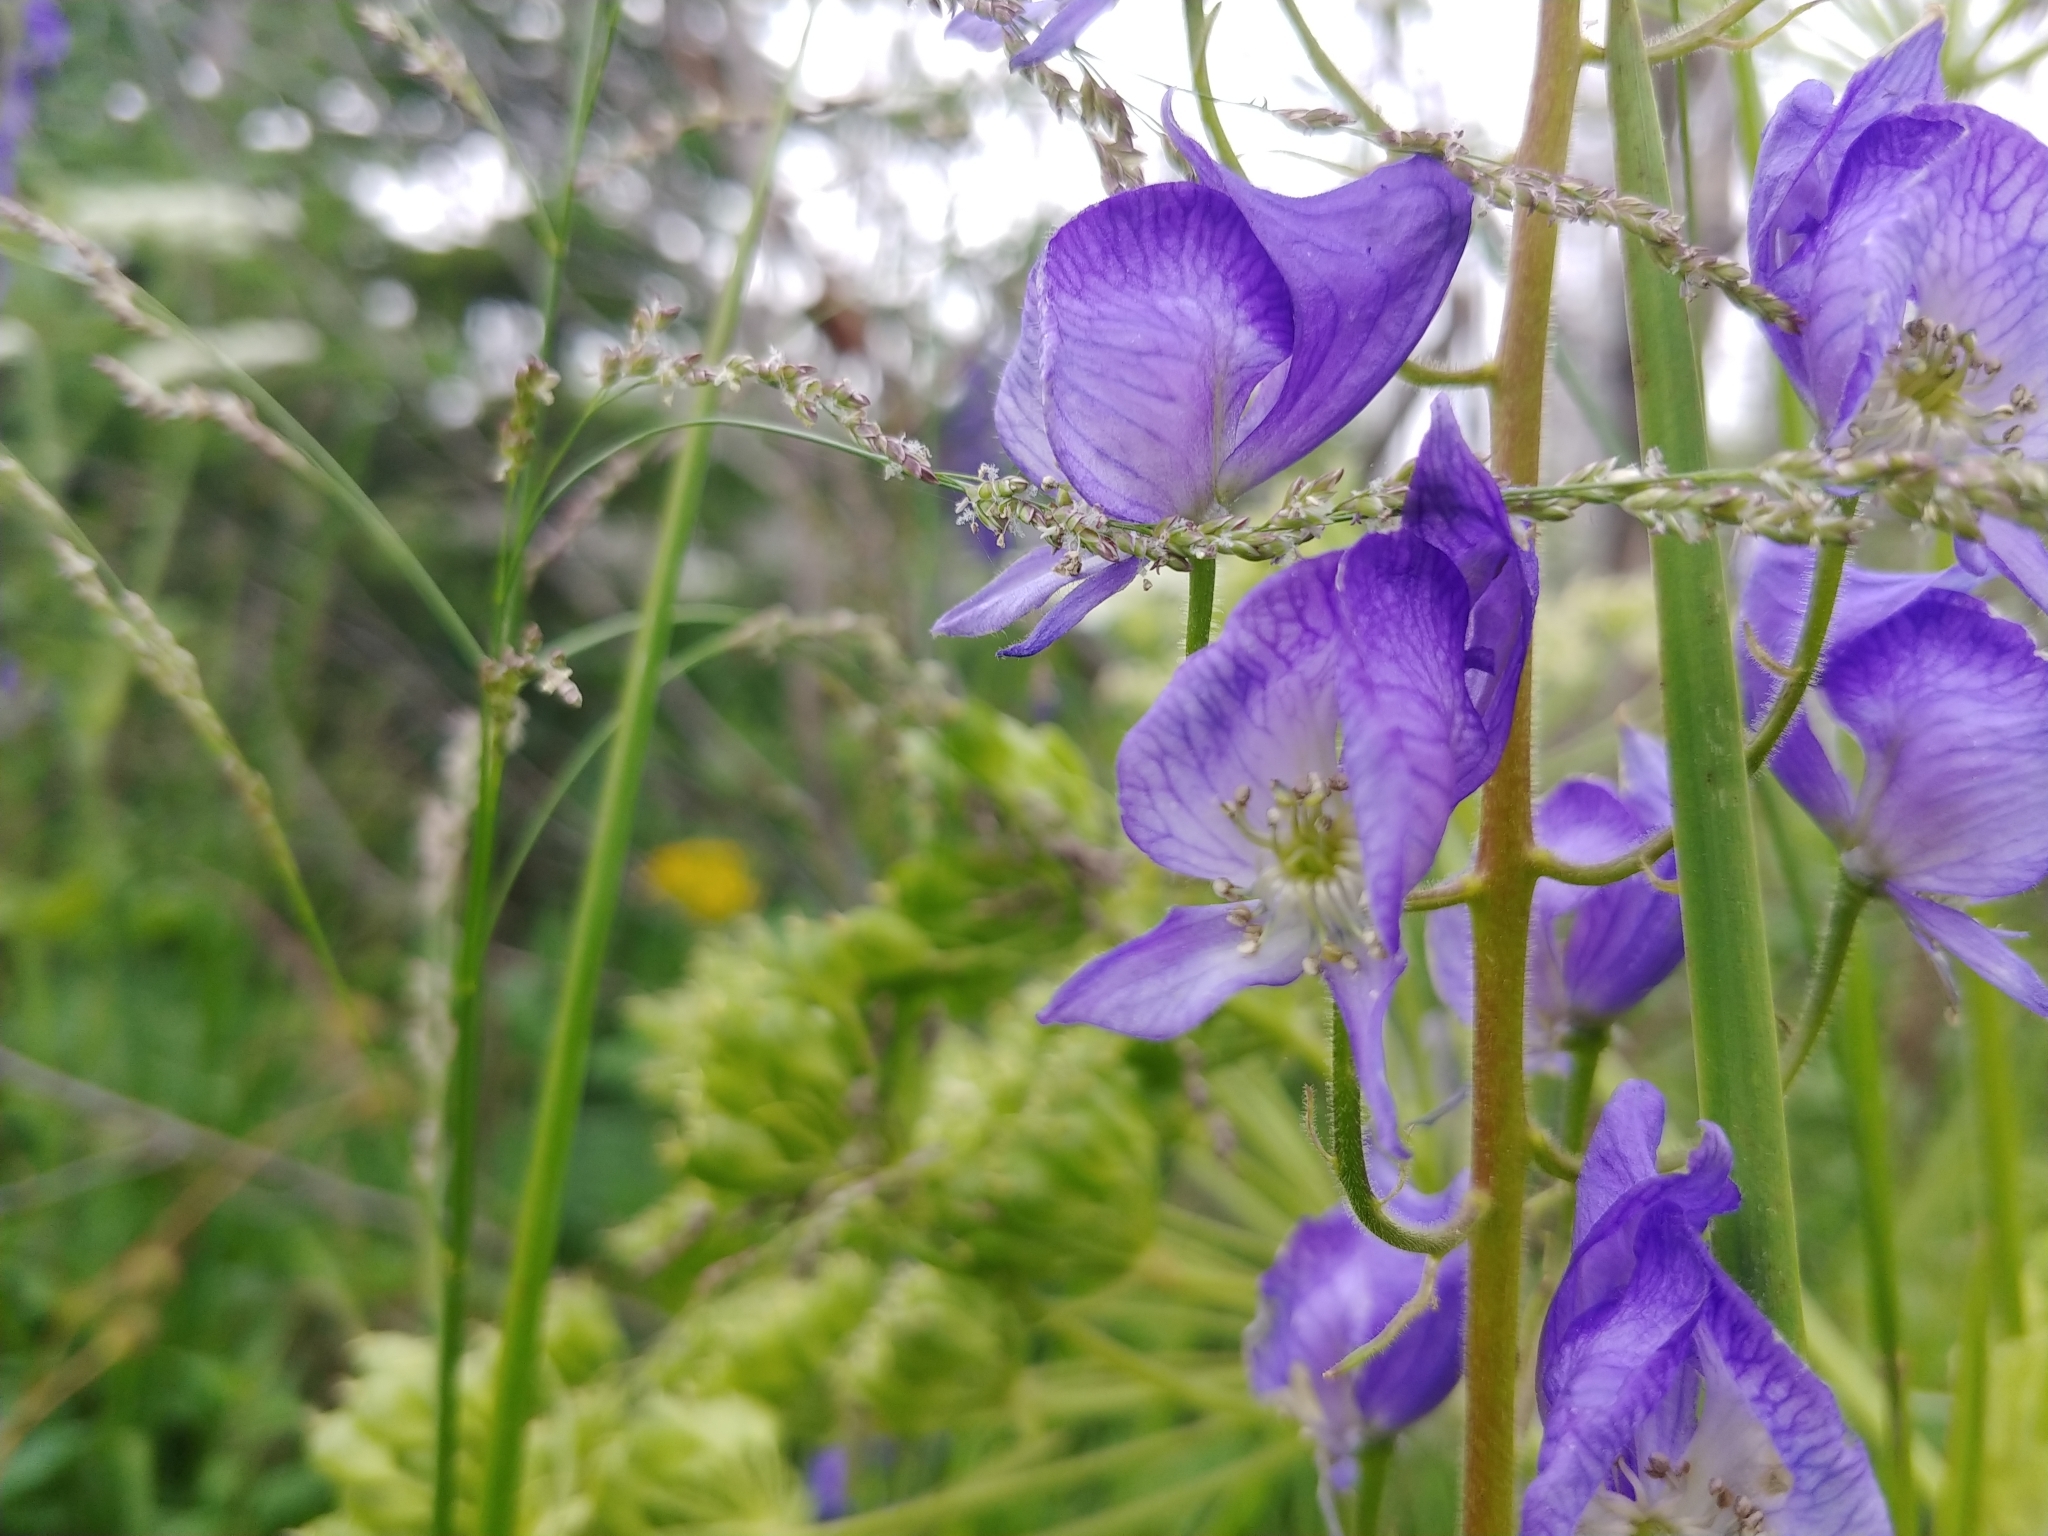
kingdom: Plantae
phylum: Tracheophyta
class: Magnoliopsida
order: Ranunculales
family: Ranunculaceae
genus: Aconitum
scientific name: Aconitum columbianum
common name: Columbia aconite
